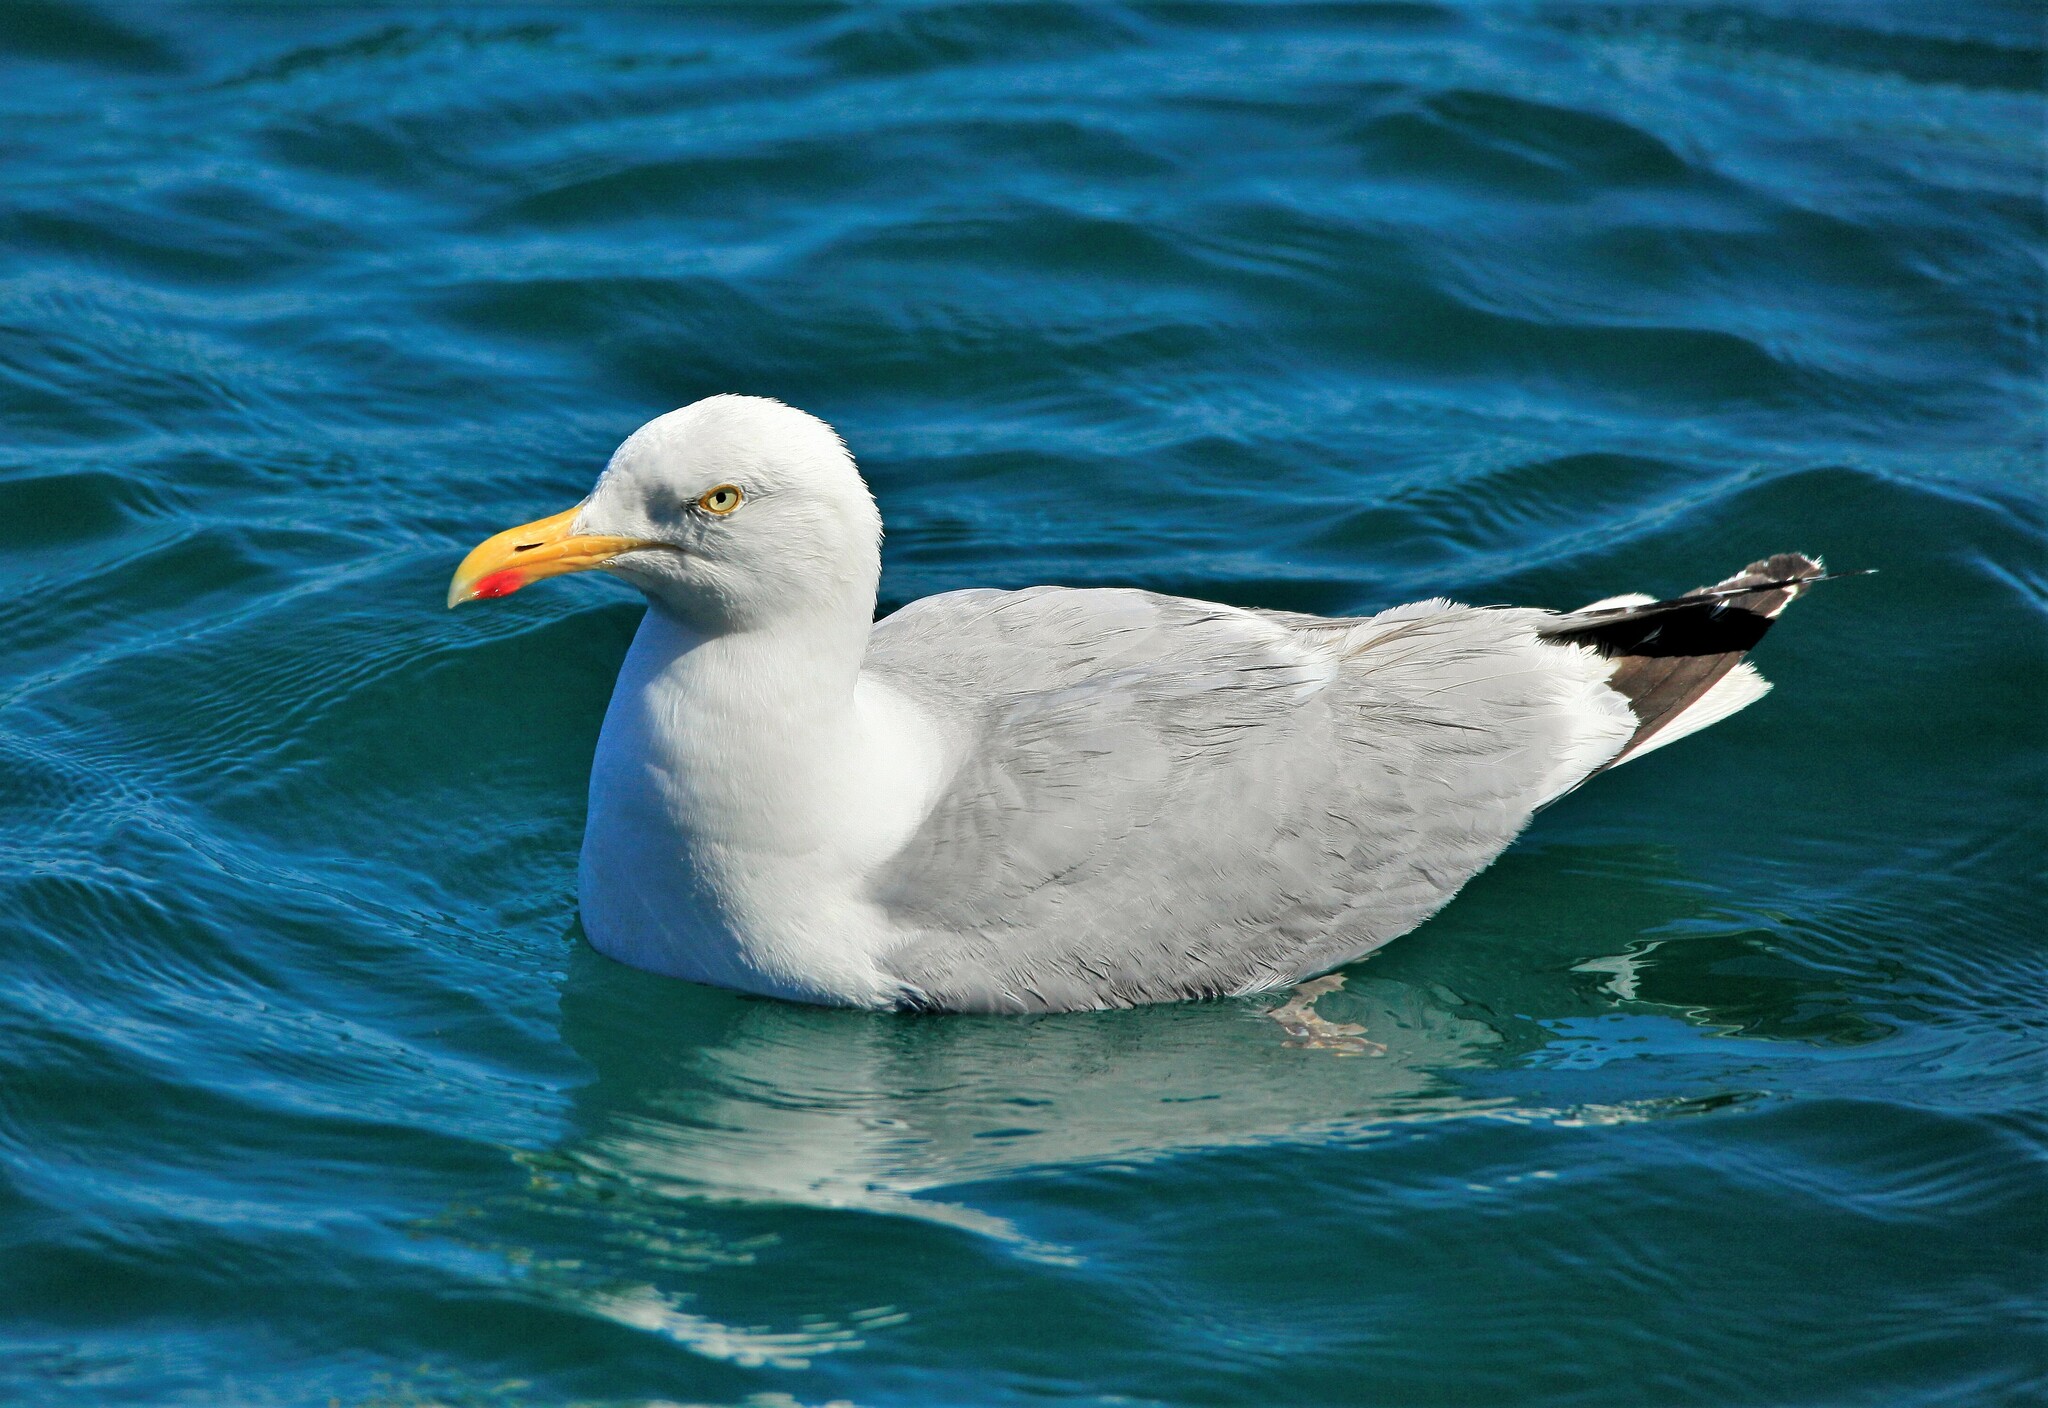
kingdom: Animalia
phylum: Chordata
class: Aves
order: Charadriiformes
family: Laridae
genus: Larus
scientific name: Larus argentatus
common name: Herring gull
